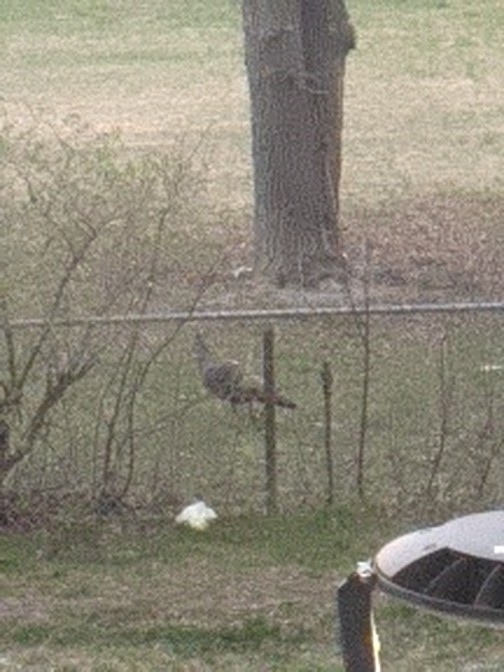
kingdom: Animalia
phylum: Chordata
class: Aves
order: Galliformes
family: Phasianidae
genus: Meleagris
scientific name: Meleagris gallopavo
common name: Wild turkey
